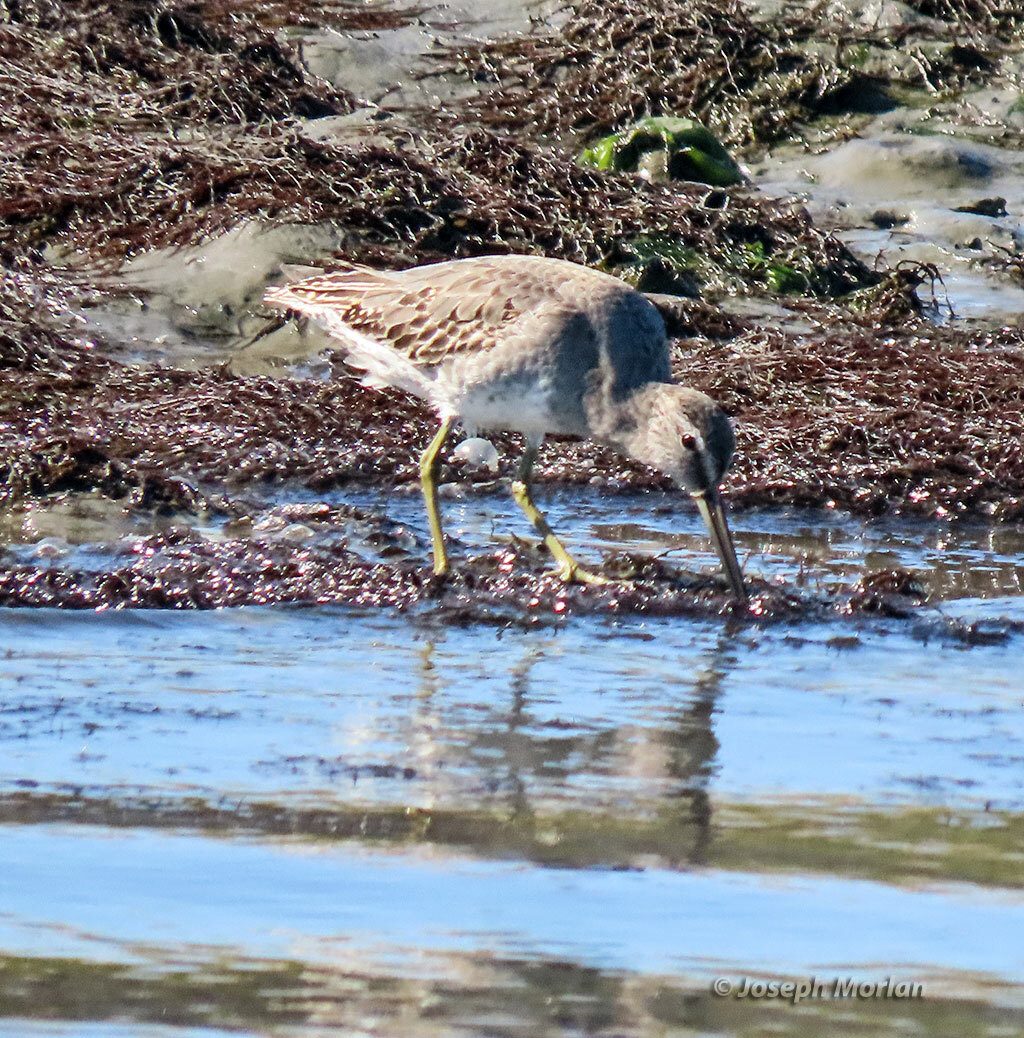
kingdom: Animalia
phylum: Chordata
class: Aves
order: Charadriiformes
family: Scolopacidae
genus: Limnodromus
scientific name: Limnodromus griseus
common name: Short-billed dowitcher
